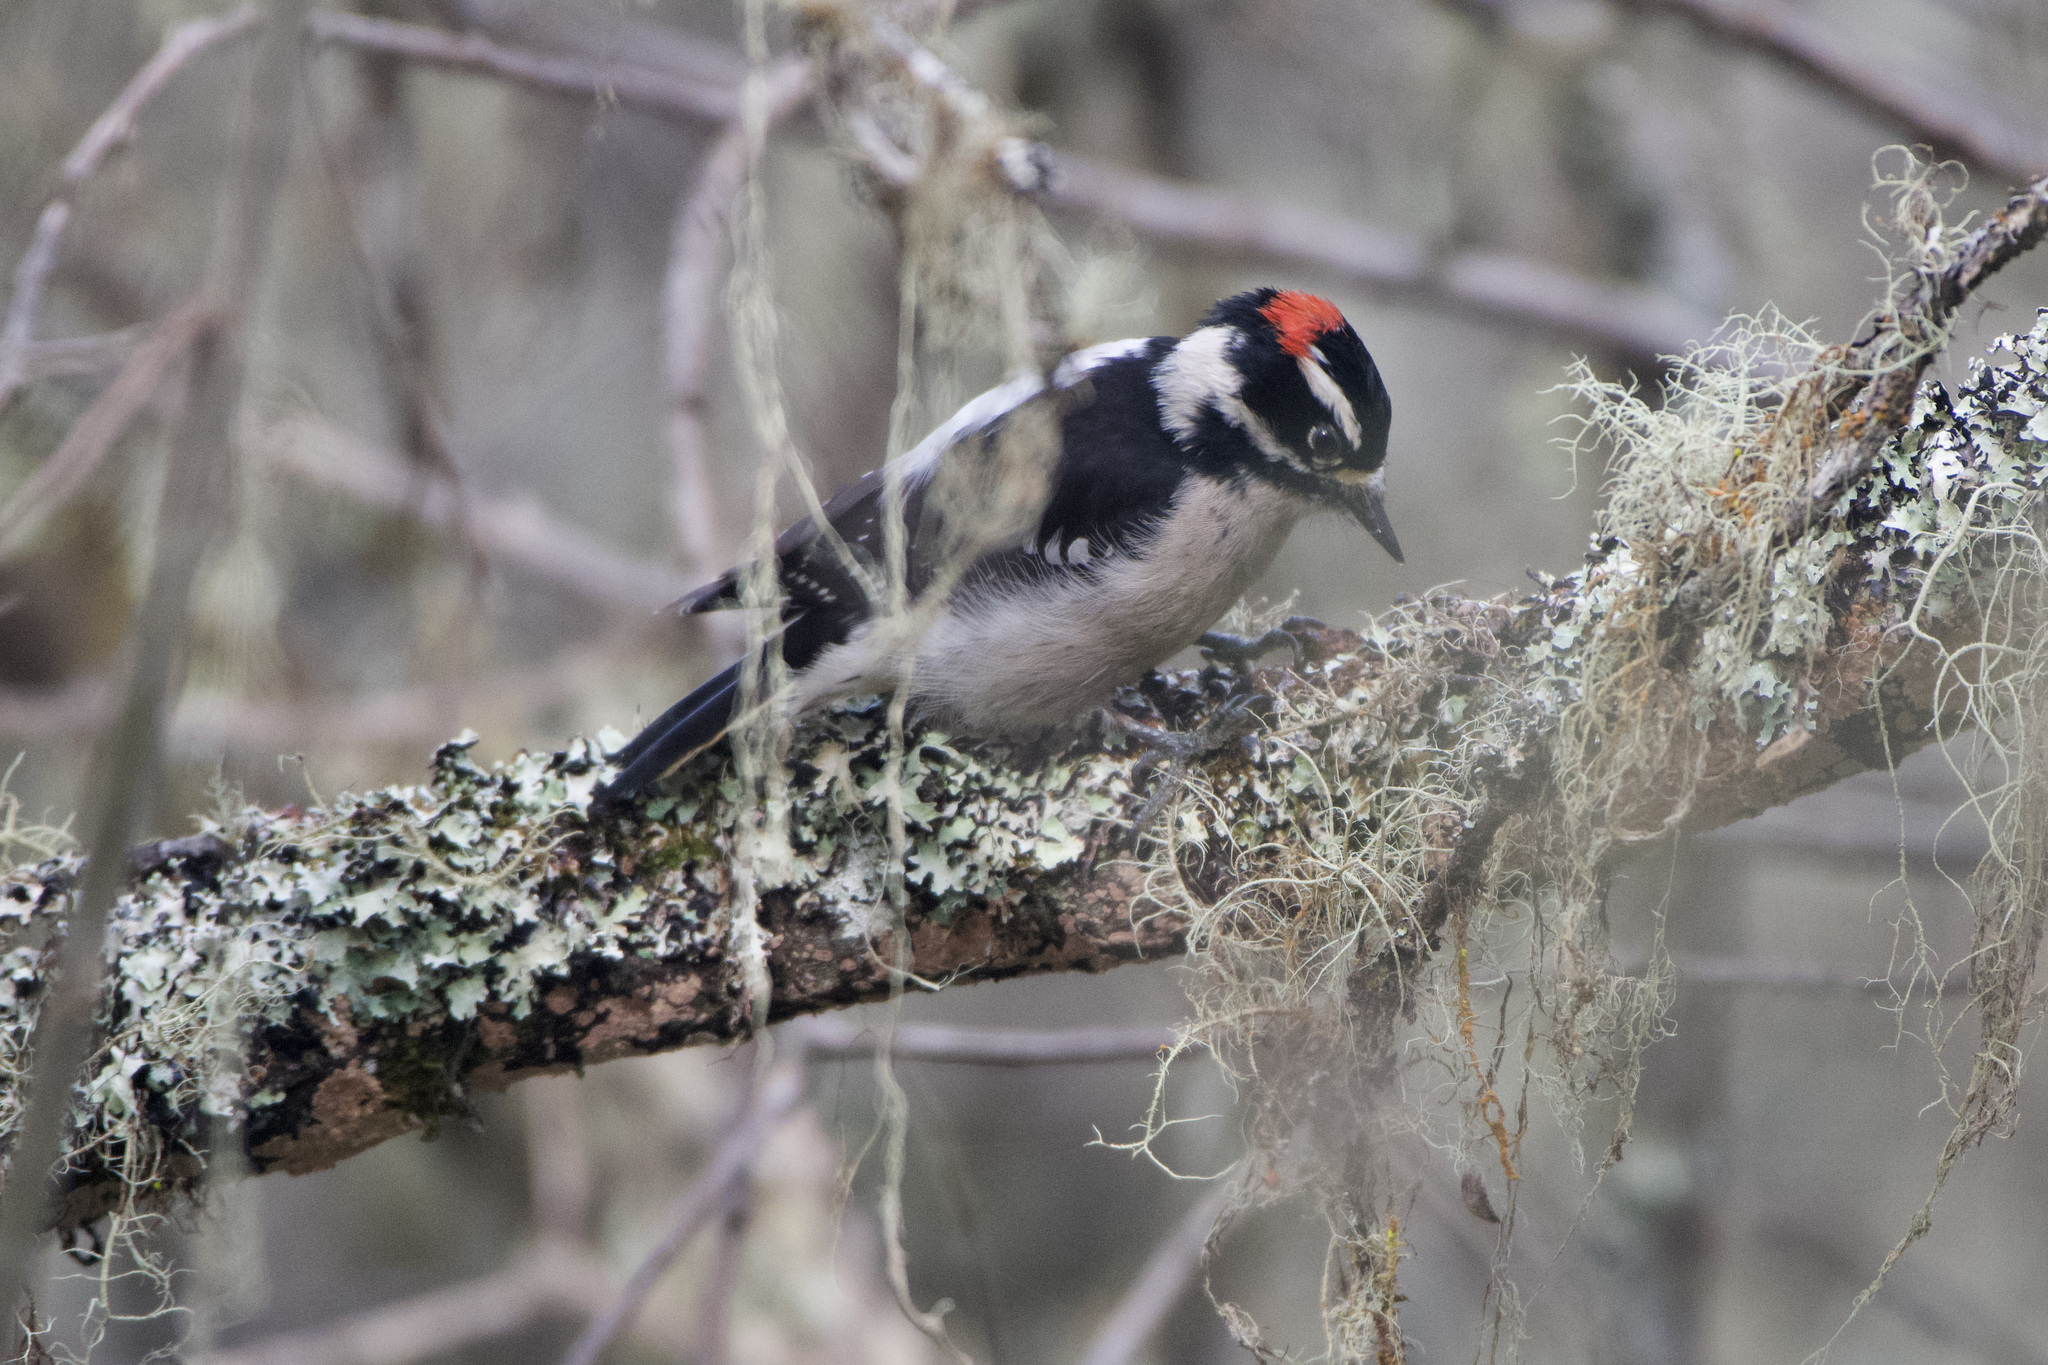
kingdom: Animalia
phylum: Chordata
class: Aves
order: Piciformes
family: Picidae
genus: Dryobates
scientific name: Dryobates pubescens
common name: Downy woodpecker
